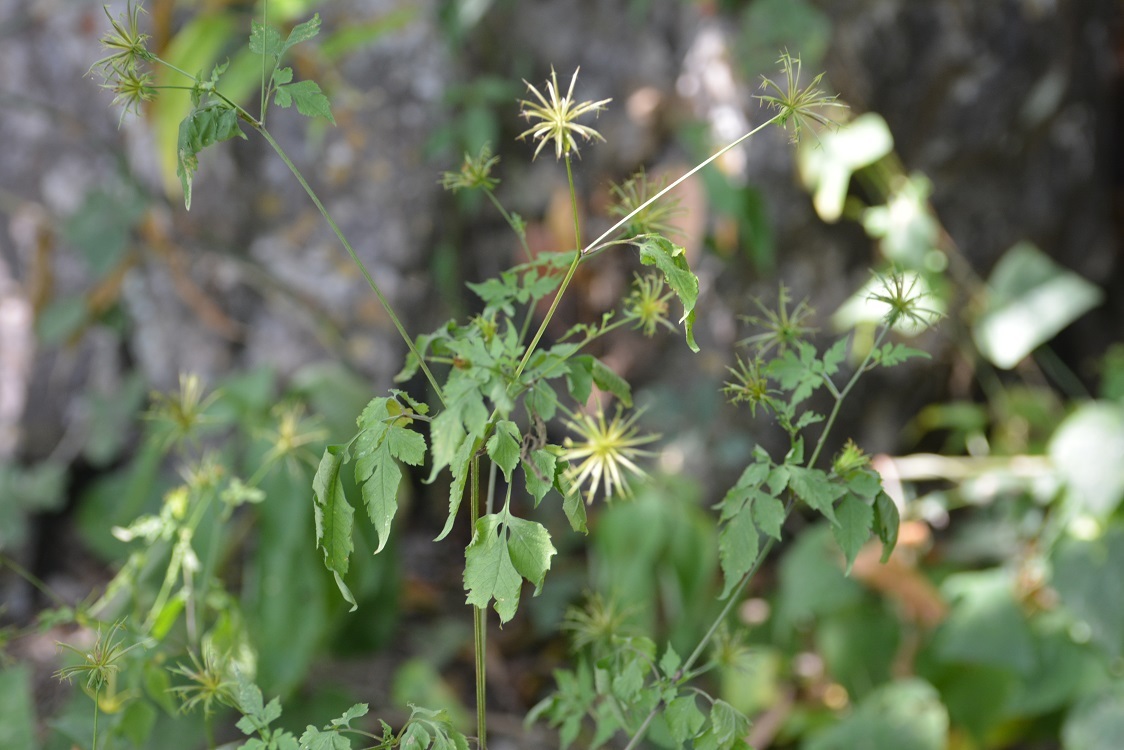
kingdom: Plantae
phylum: Tracheophyta
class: Magnoliopsida
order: Asterales
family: Asteraceae
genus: Bidens
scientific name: Bidens mexicana
